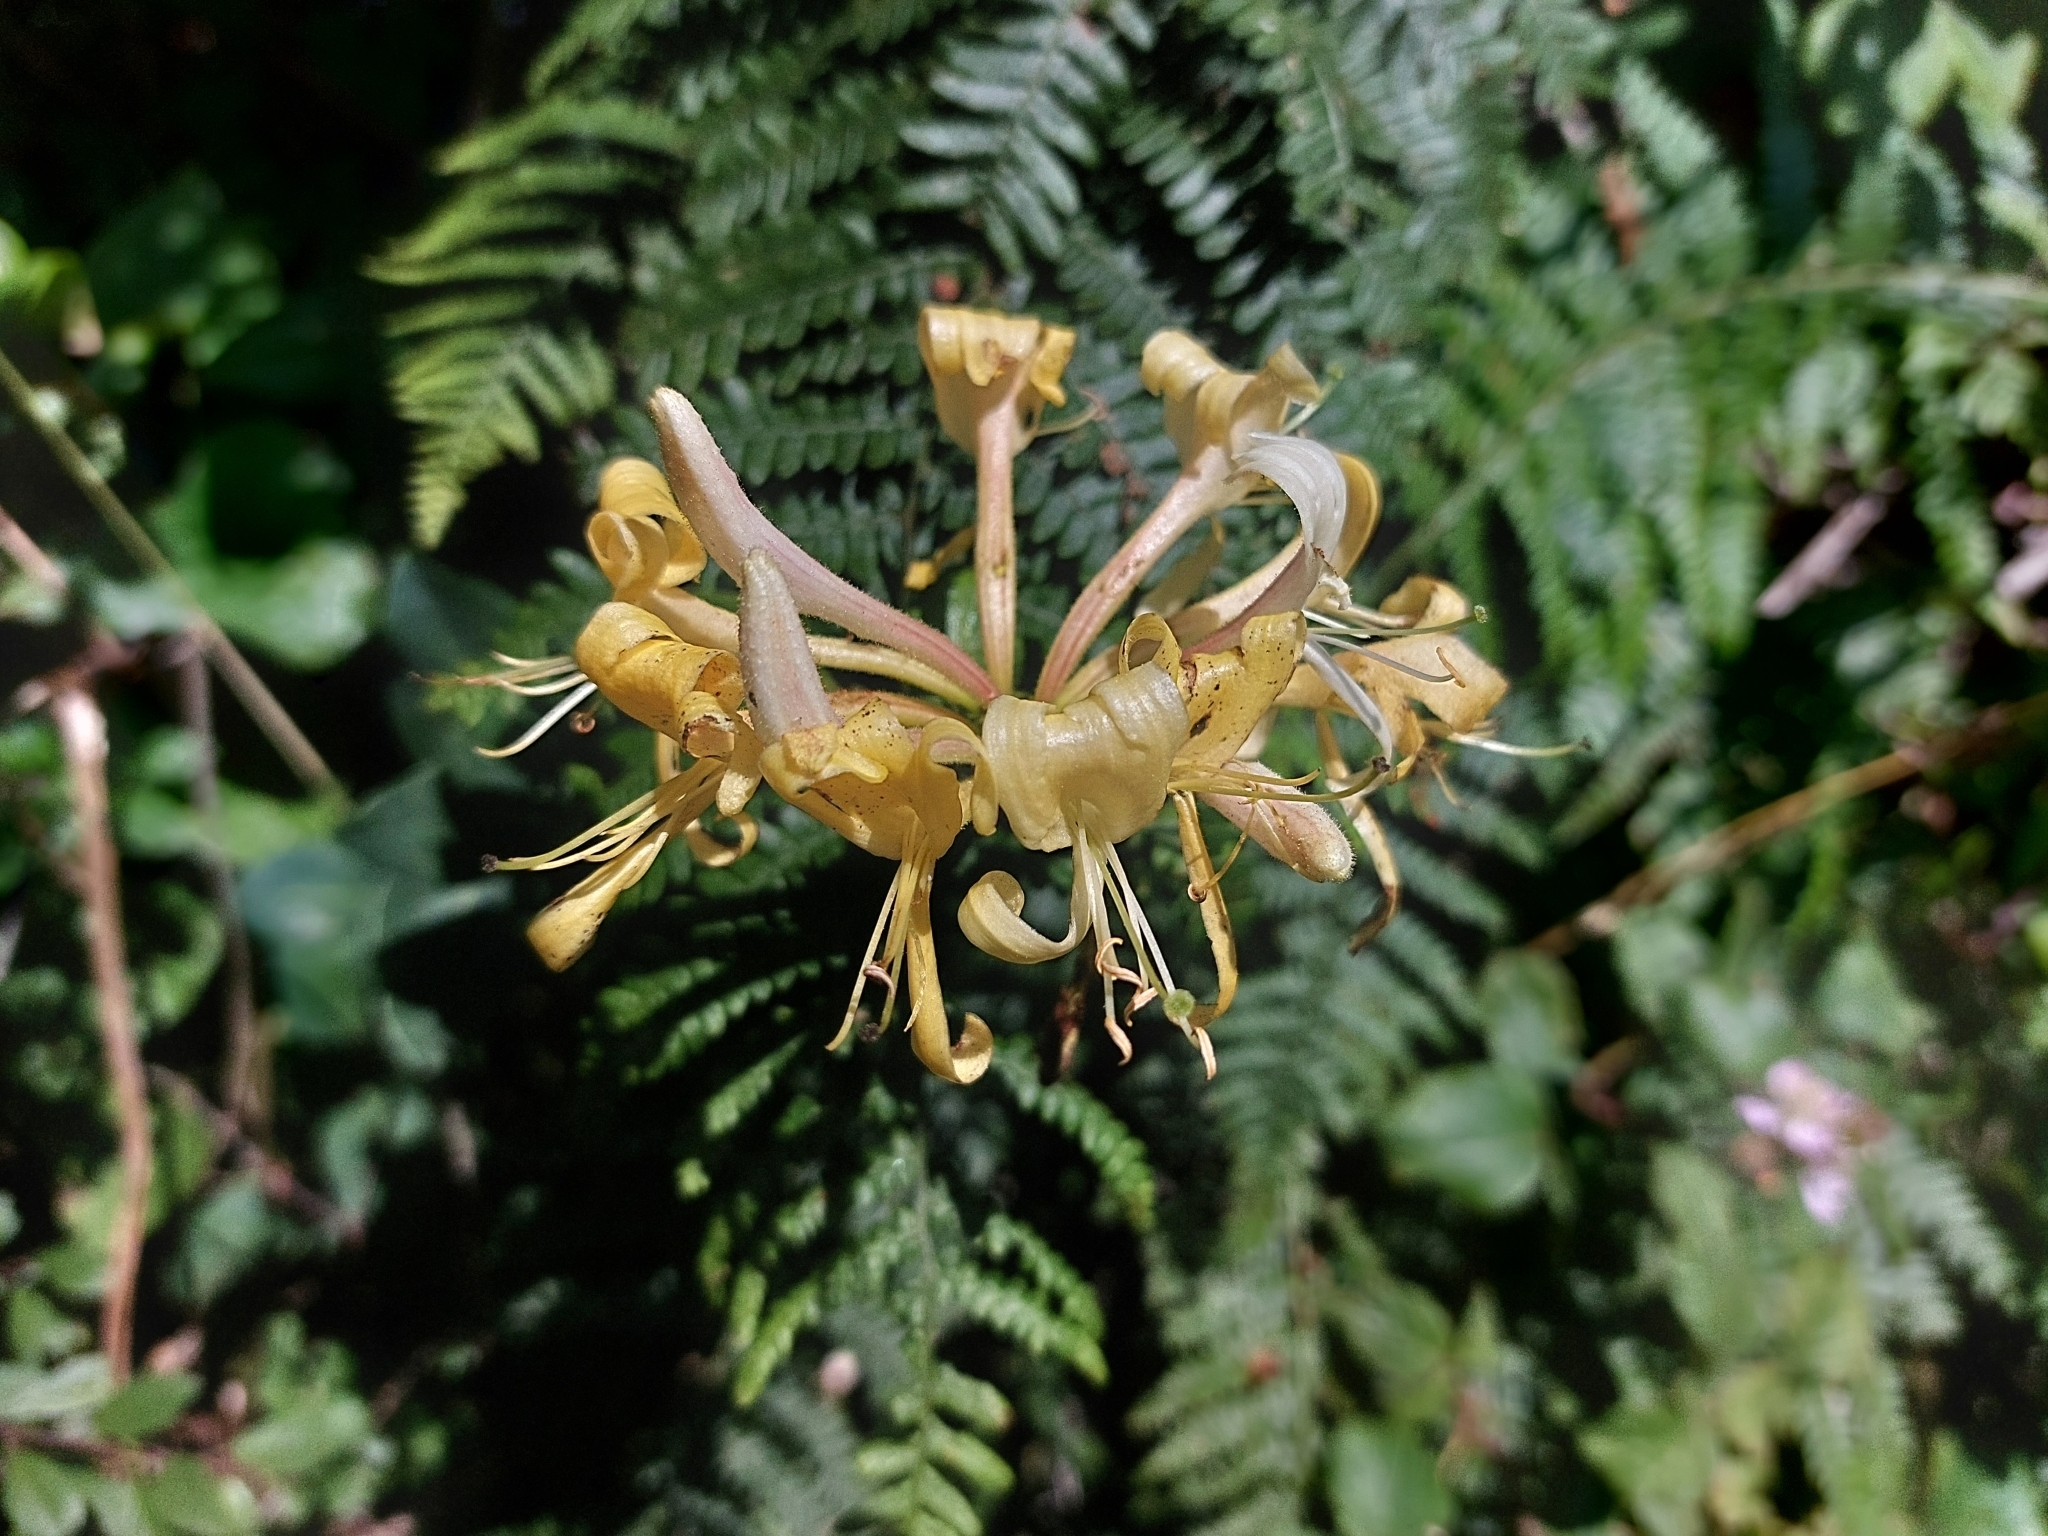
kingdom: Plantae
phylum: Tracheophyta
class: Magnoliopsida
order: Dipsacales
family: Caprifoliaceae
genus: Lonicera
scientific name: Lonicera periclymenum
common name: European honeysuckle
